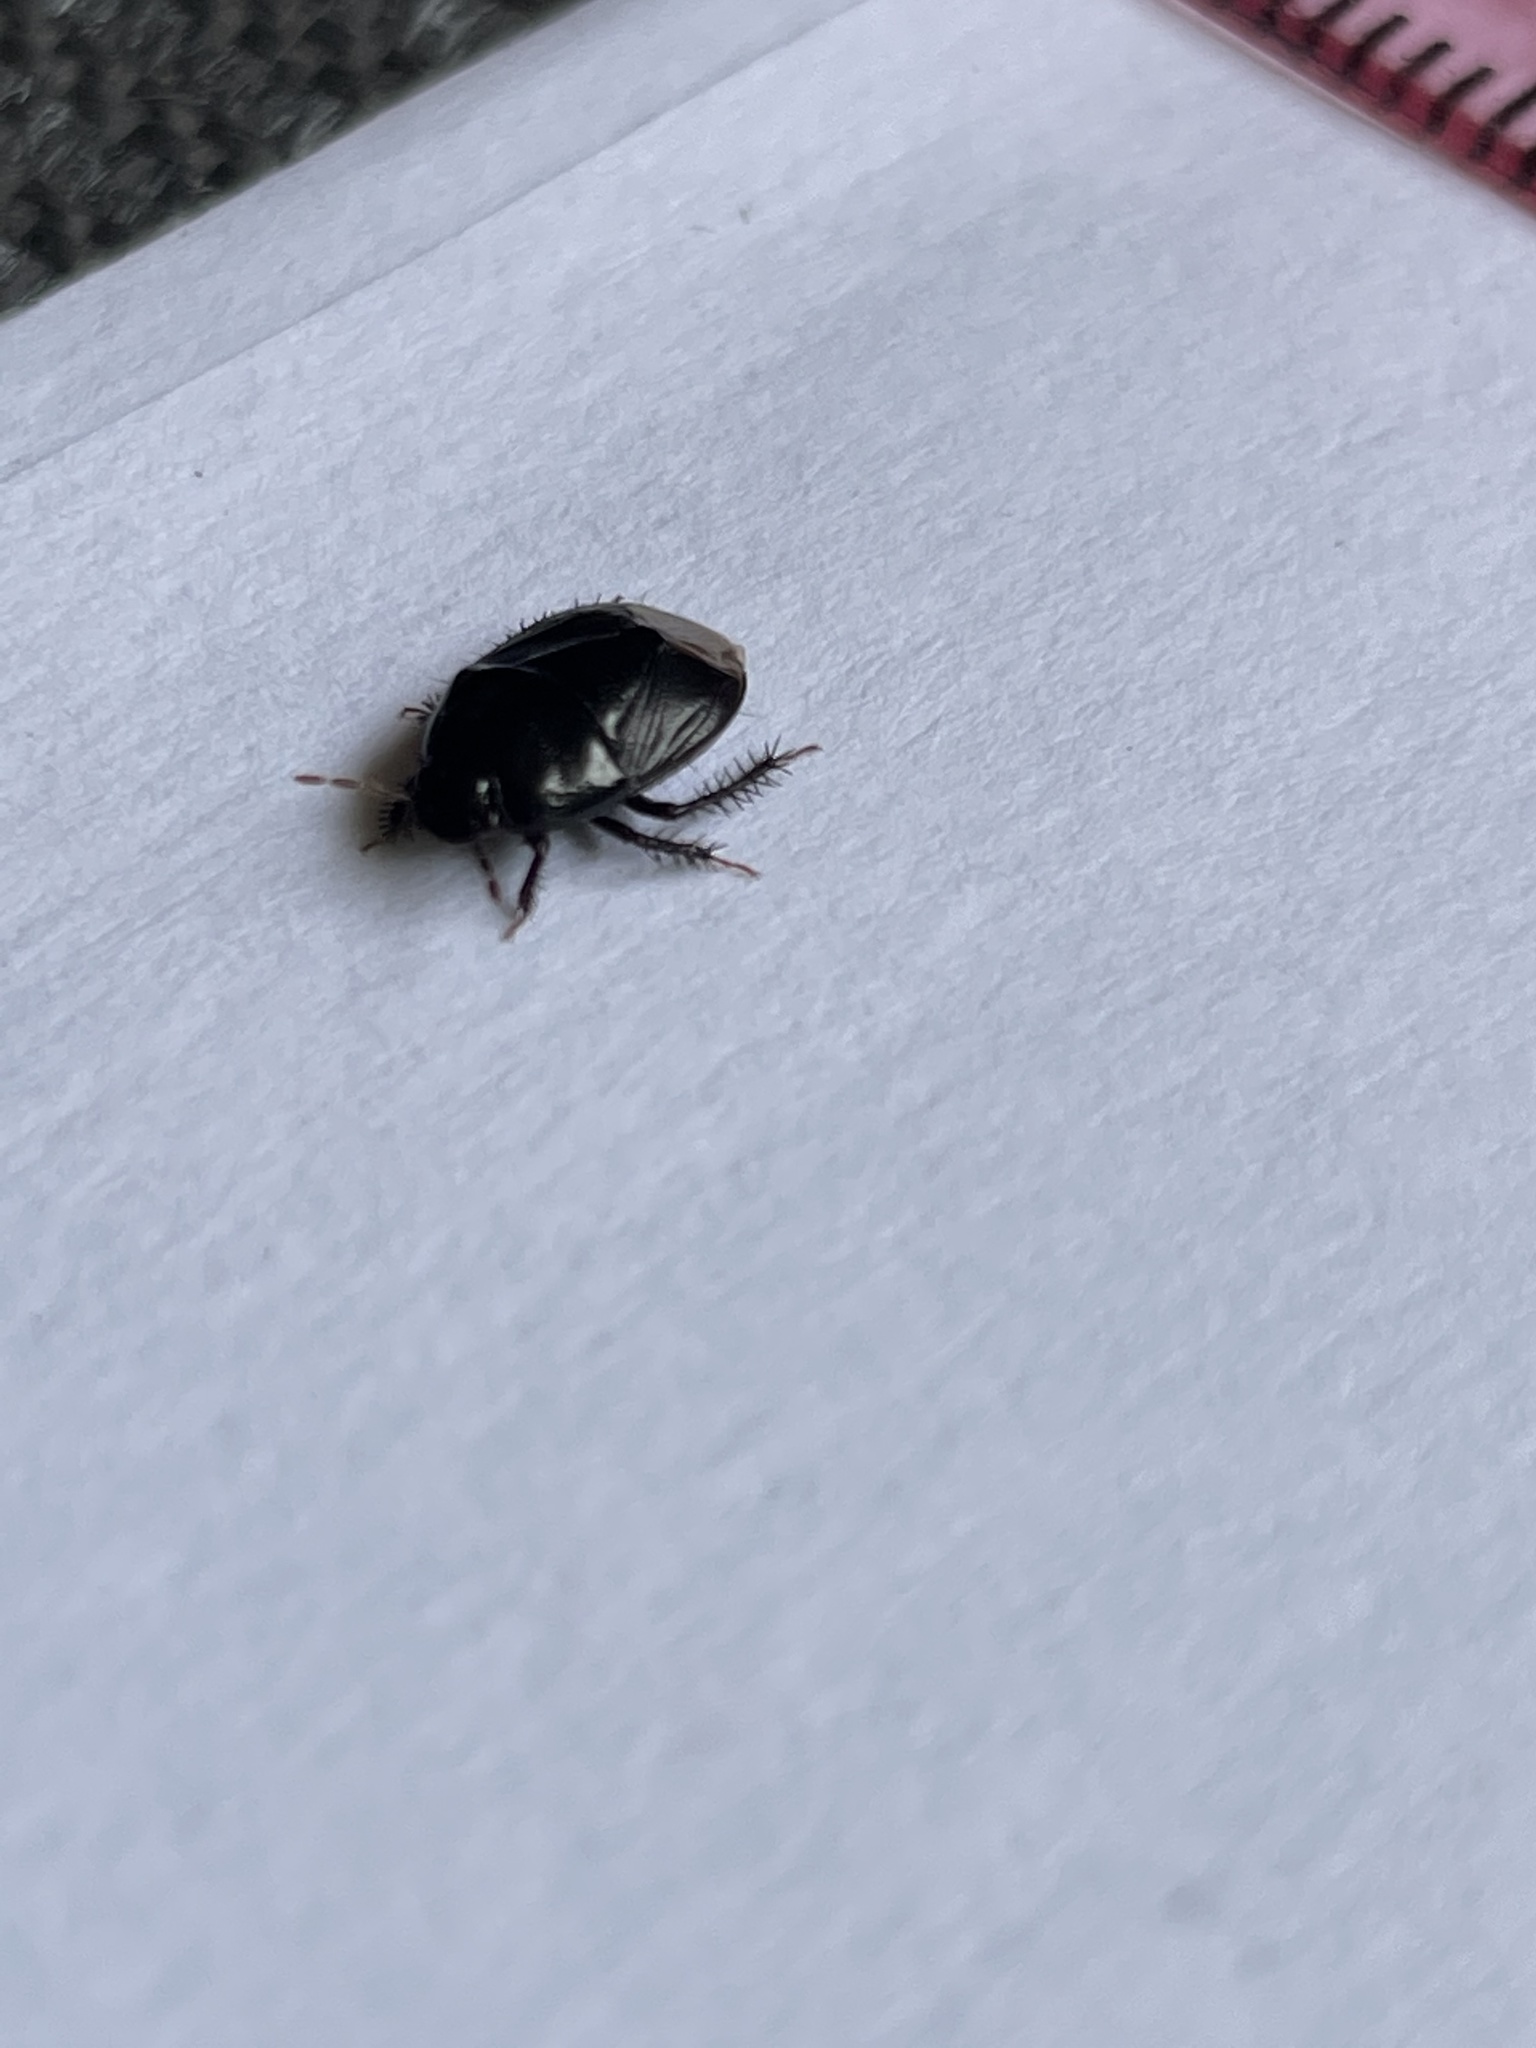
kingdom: Animalia
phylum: Arthropoda
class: Insecta
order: Hemiptera
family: Cydnidae
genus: Pangaeus
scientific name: Pangaeus bilineatus
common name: Burrower bug
